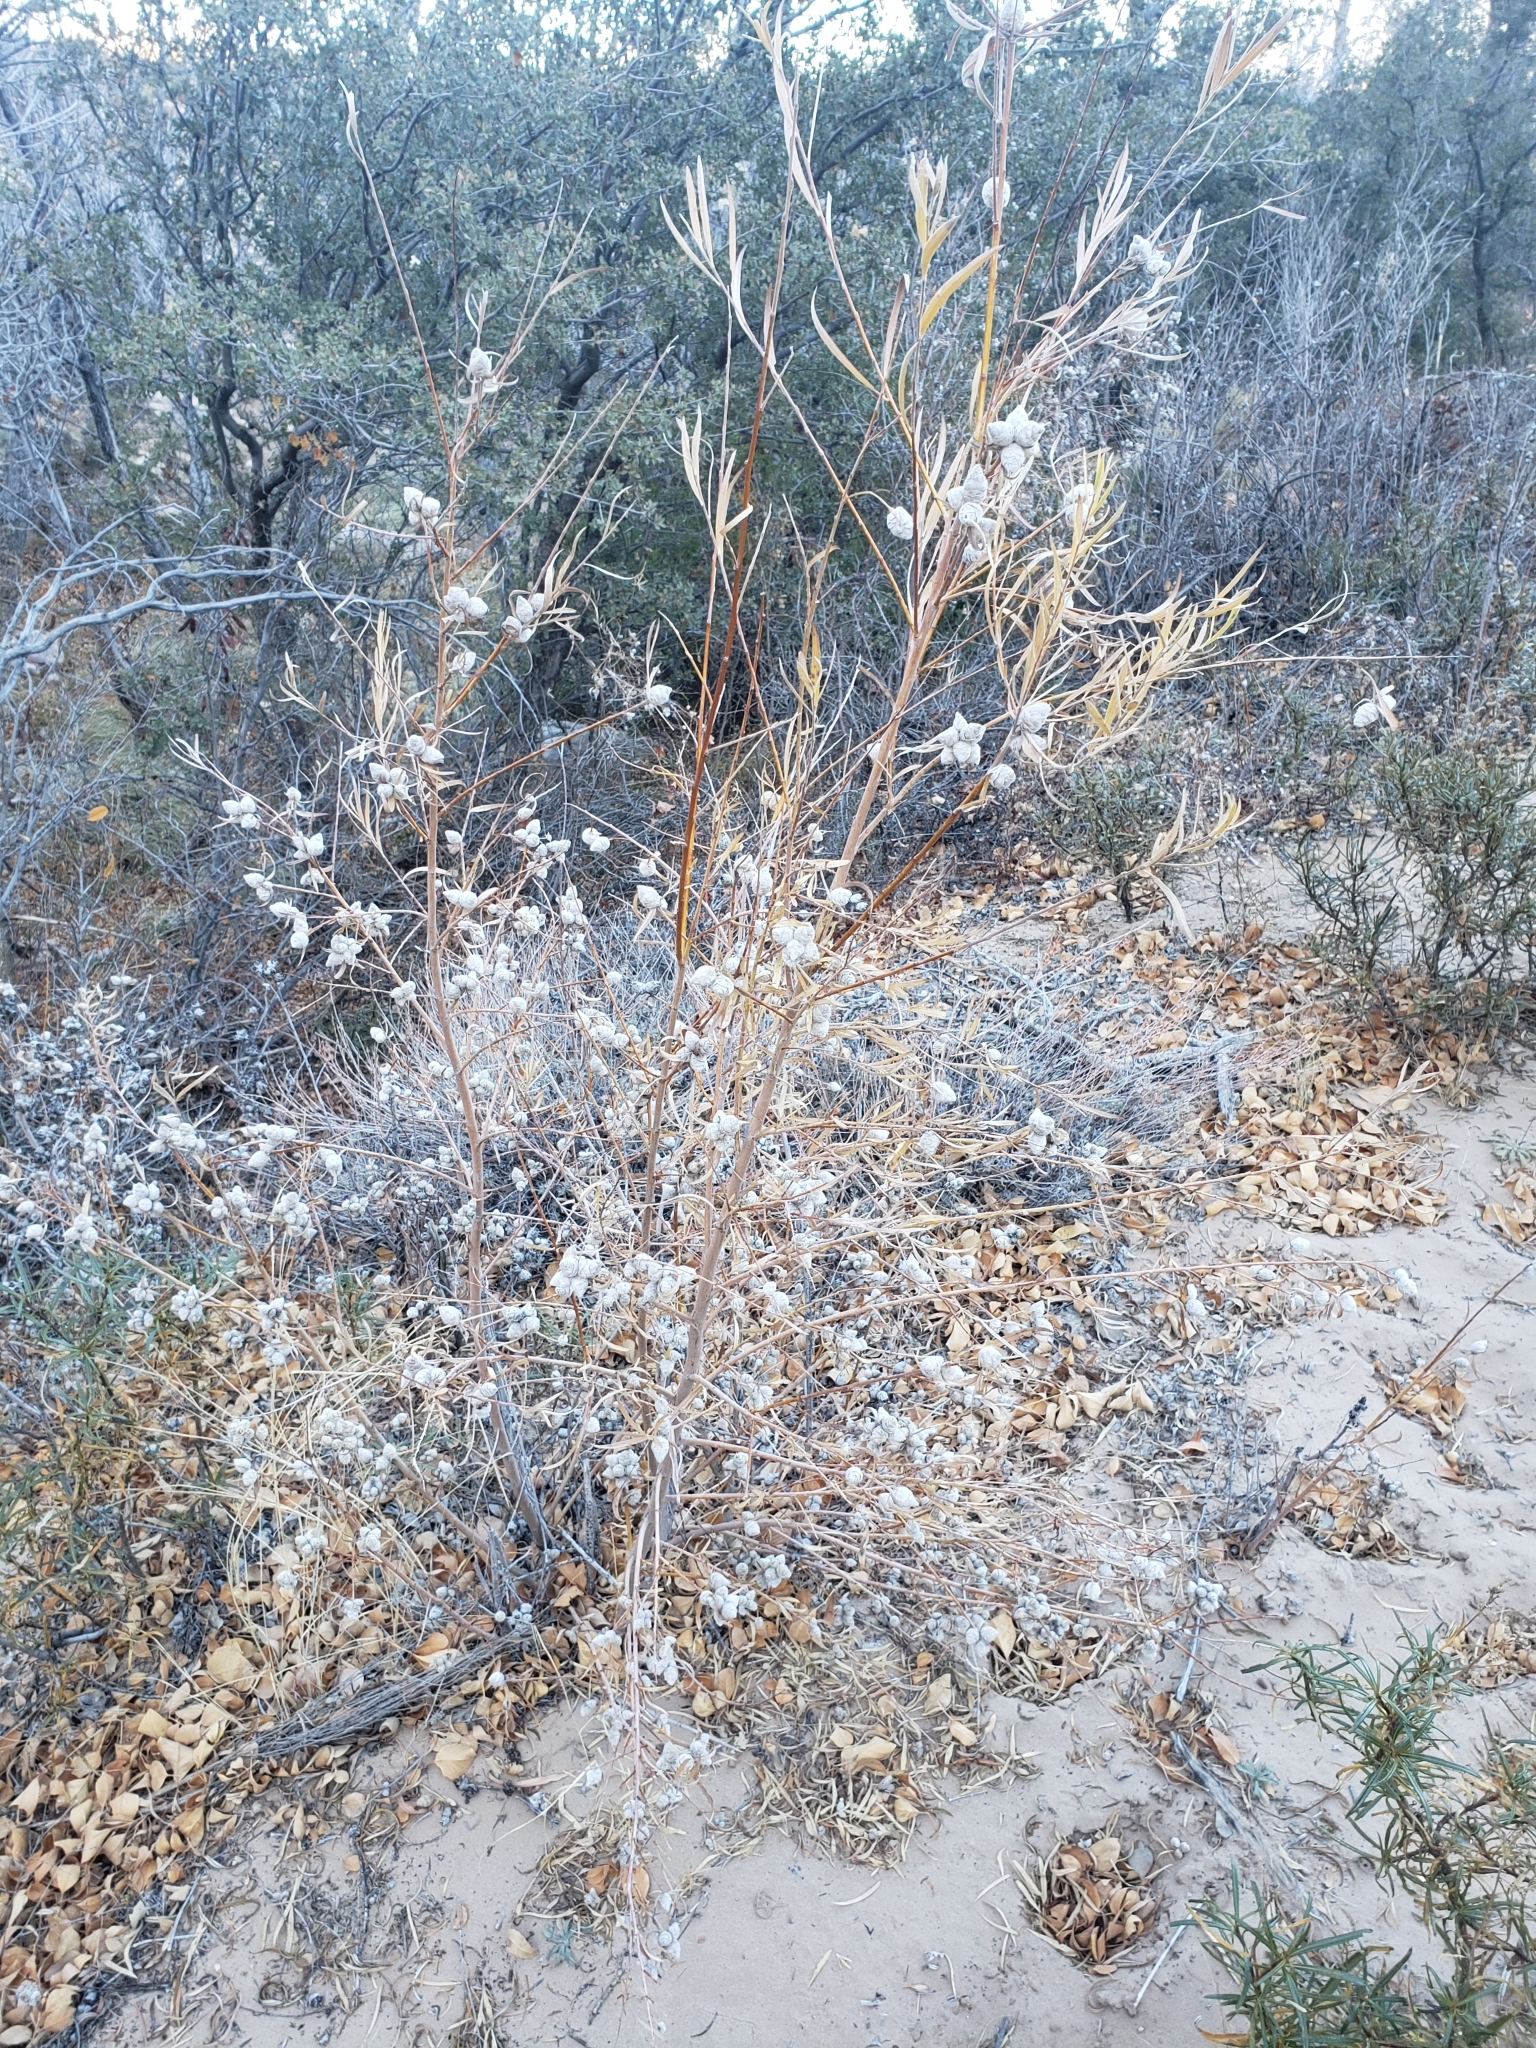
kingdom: Animalia
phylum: Arthropoda
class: Insecta
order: Diptera
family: Cecidomyiidae
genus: Rabdophaga
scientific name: Rabdophaga strobiloides
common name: Willow pinecone gall midge
